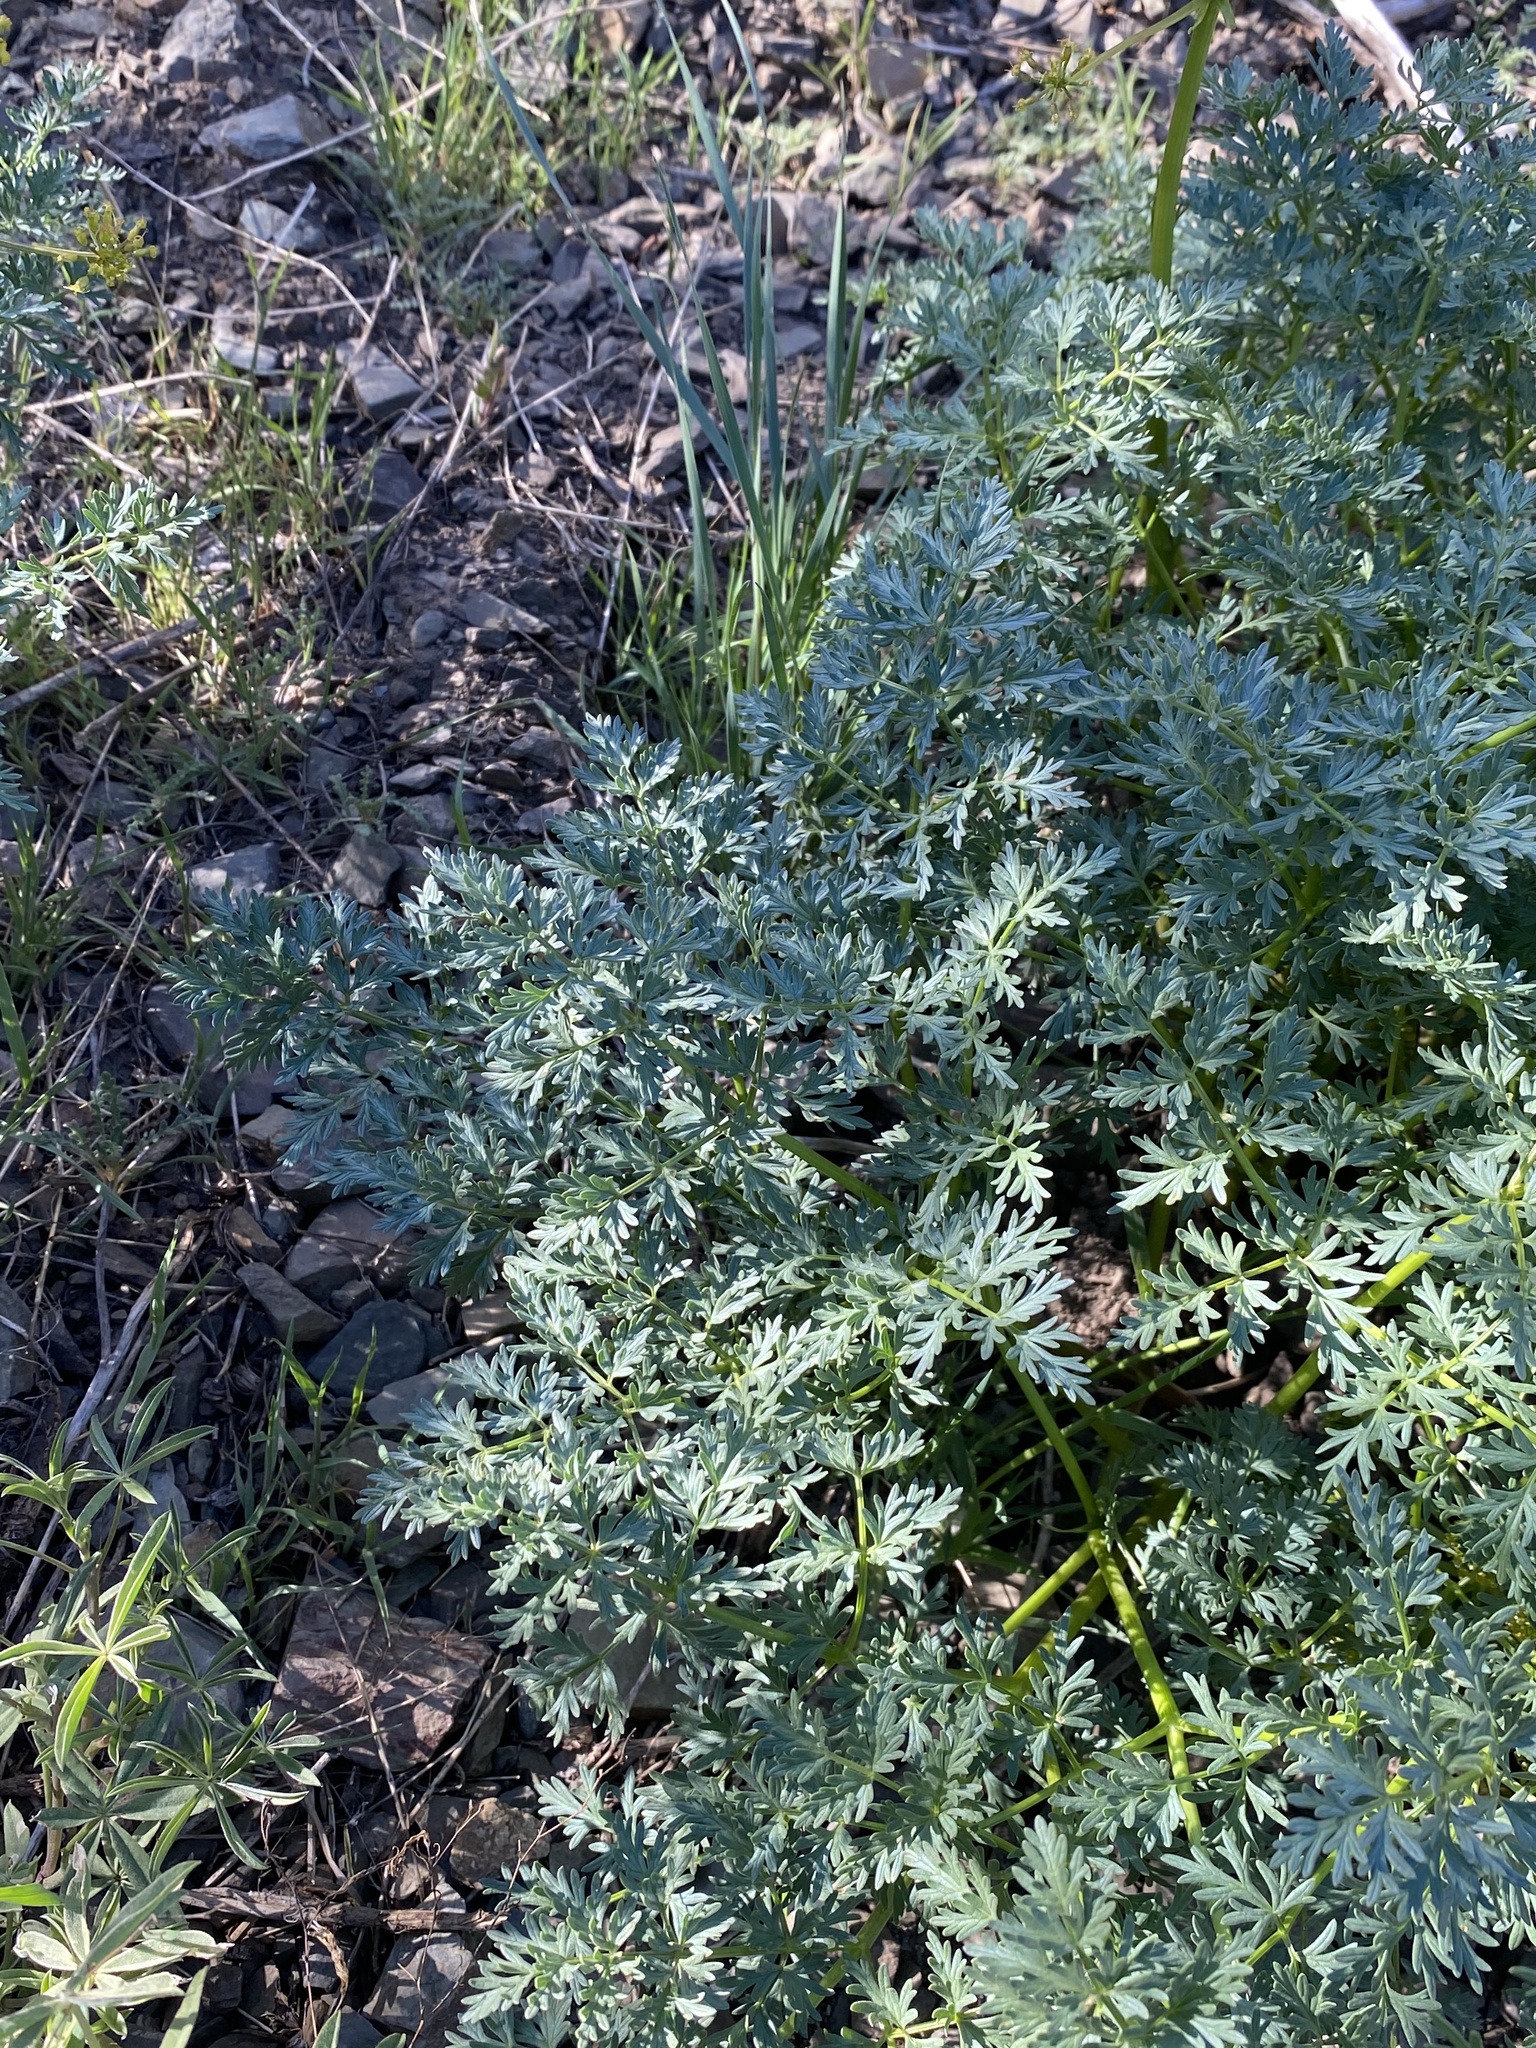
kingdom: Plantae
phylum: Tracheophyta
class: Magnoliopsida
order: Apiales
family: Apiaceae
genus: Lomatium
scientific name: Lomatium multifidum
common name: Carrot-leaved biscuitroot
